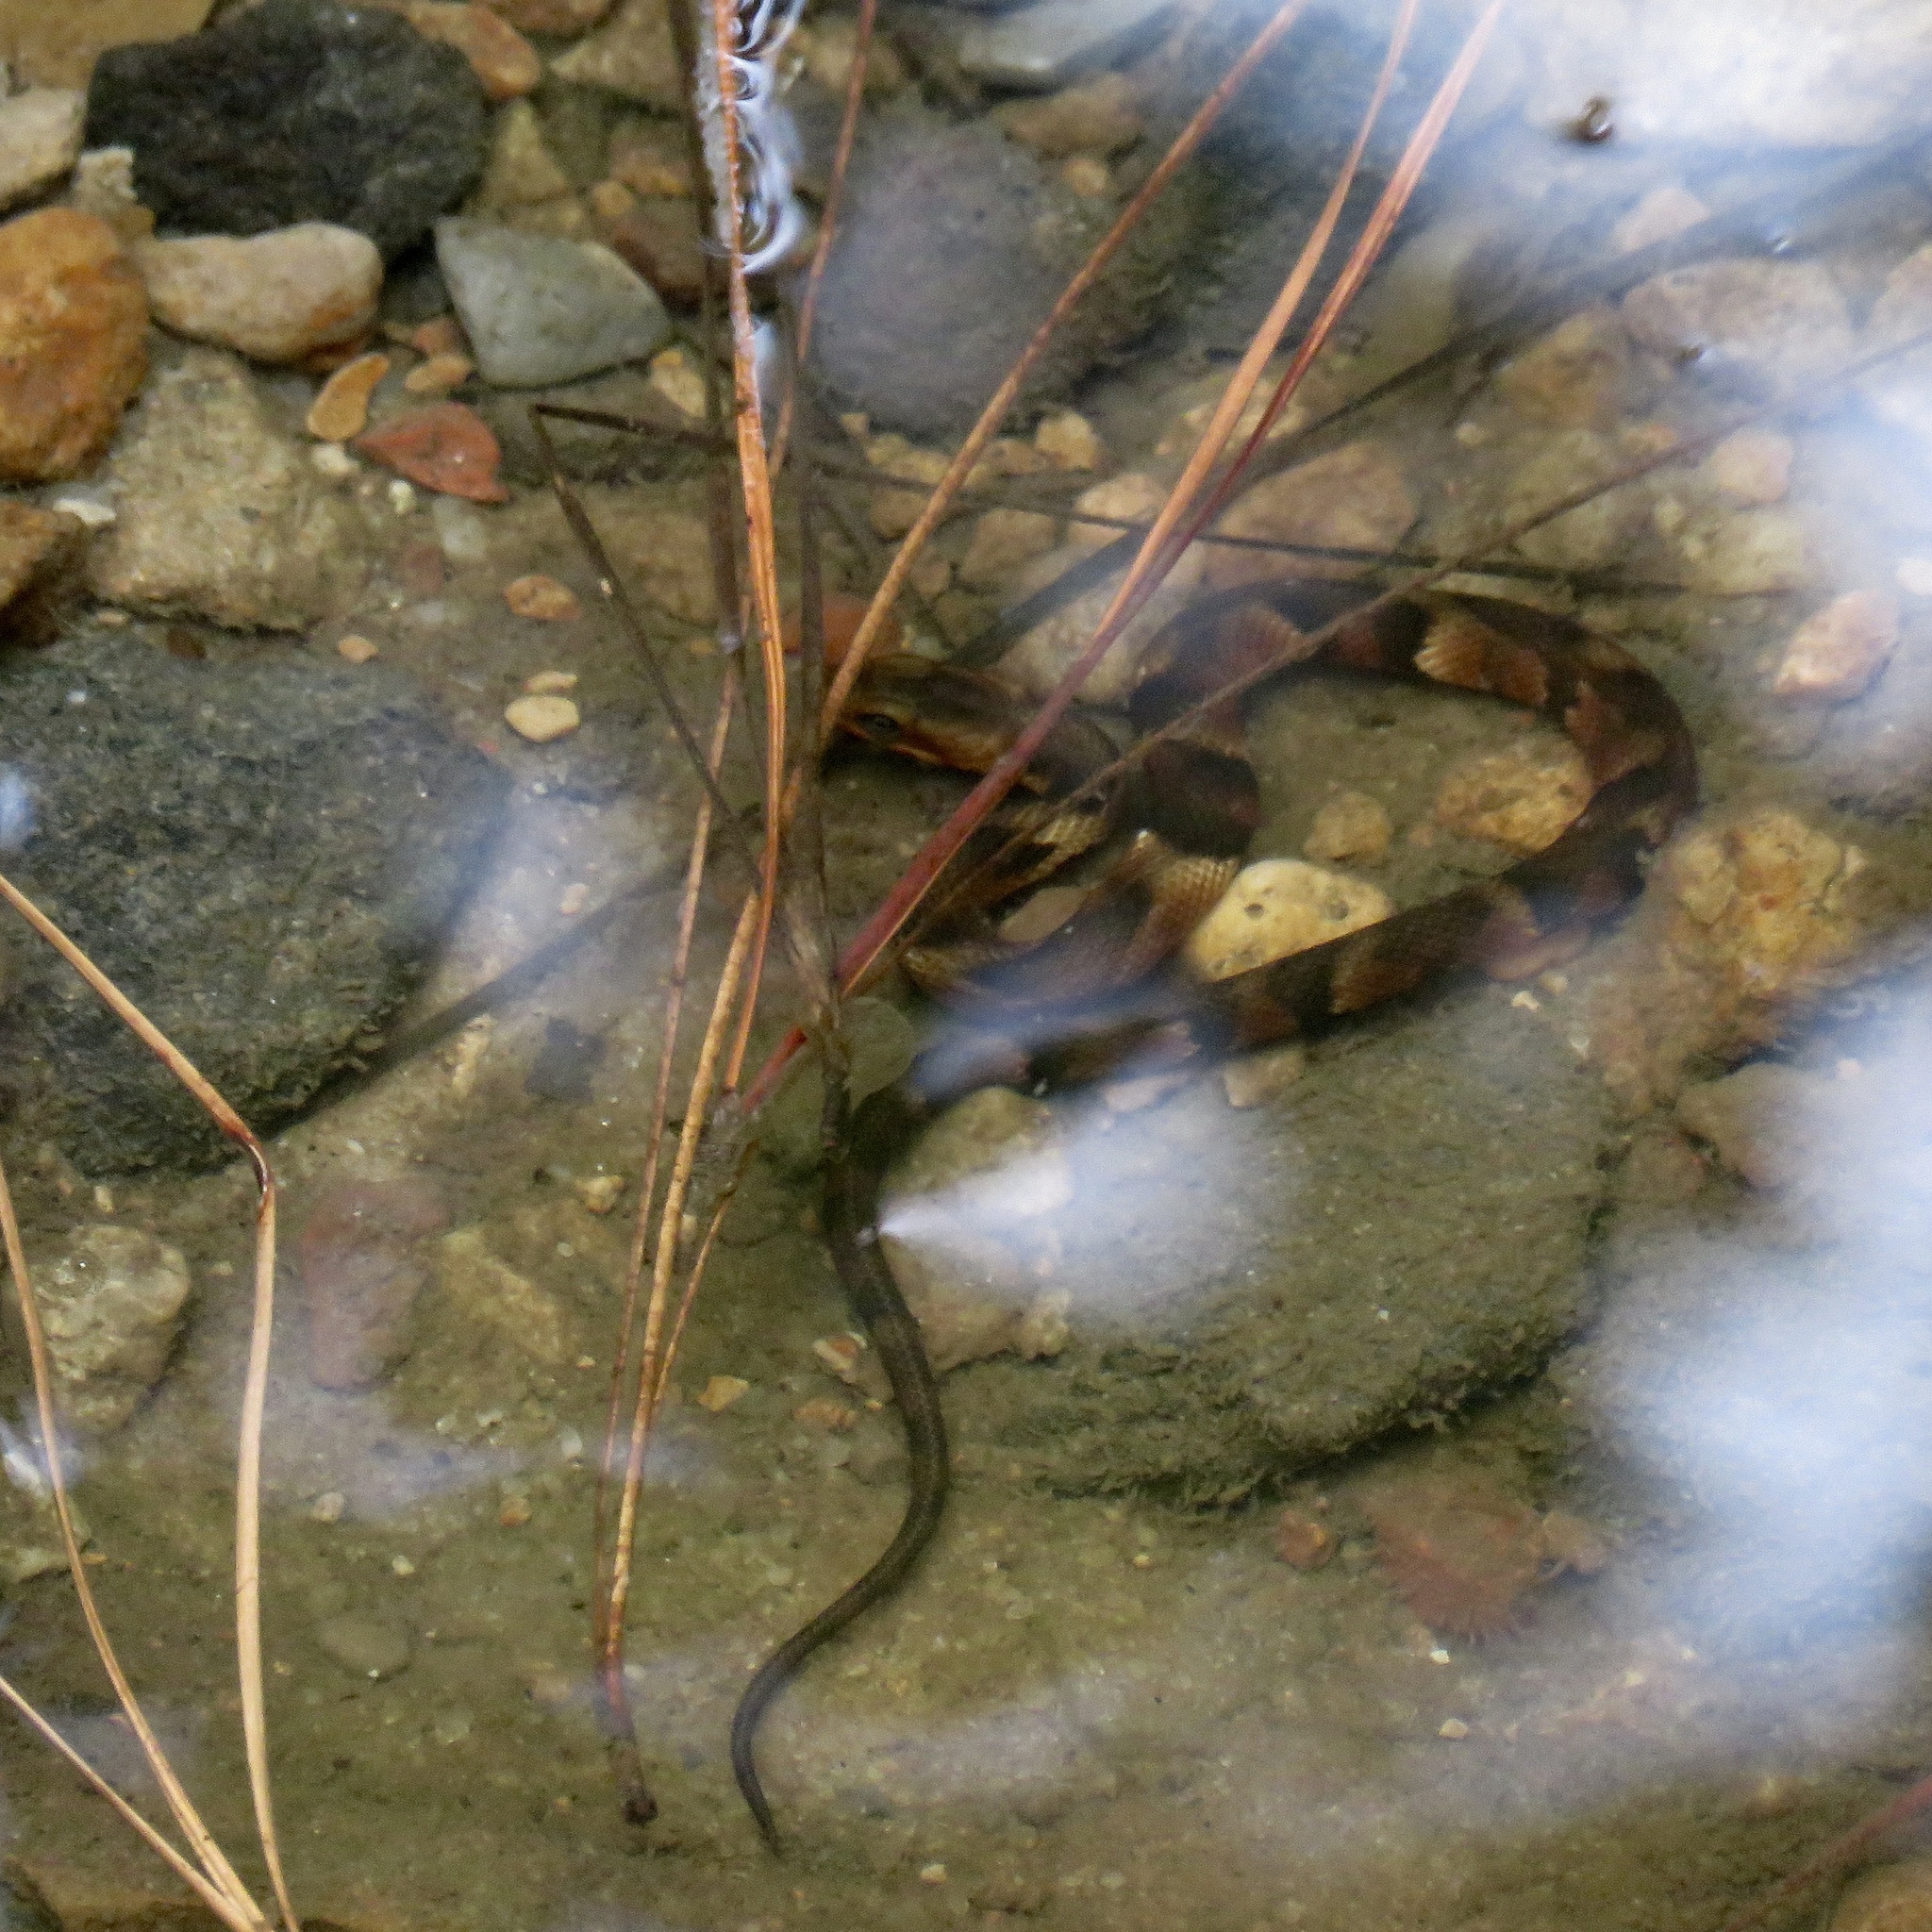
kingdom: Animalia
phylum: Chordata
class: Squamata
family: Colubridae
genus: Nerodia
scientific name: Nerodia fasciata
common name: Southern water snake
